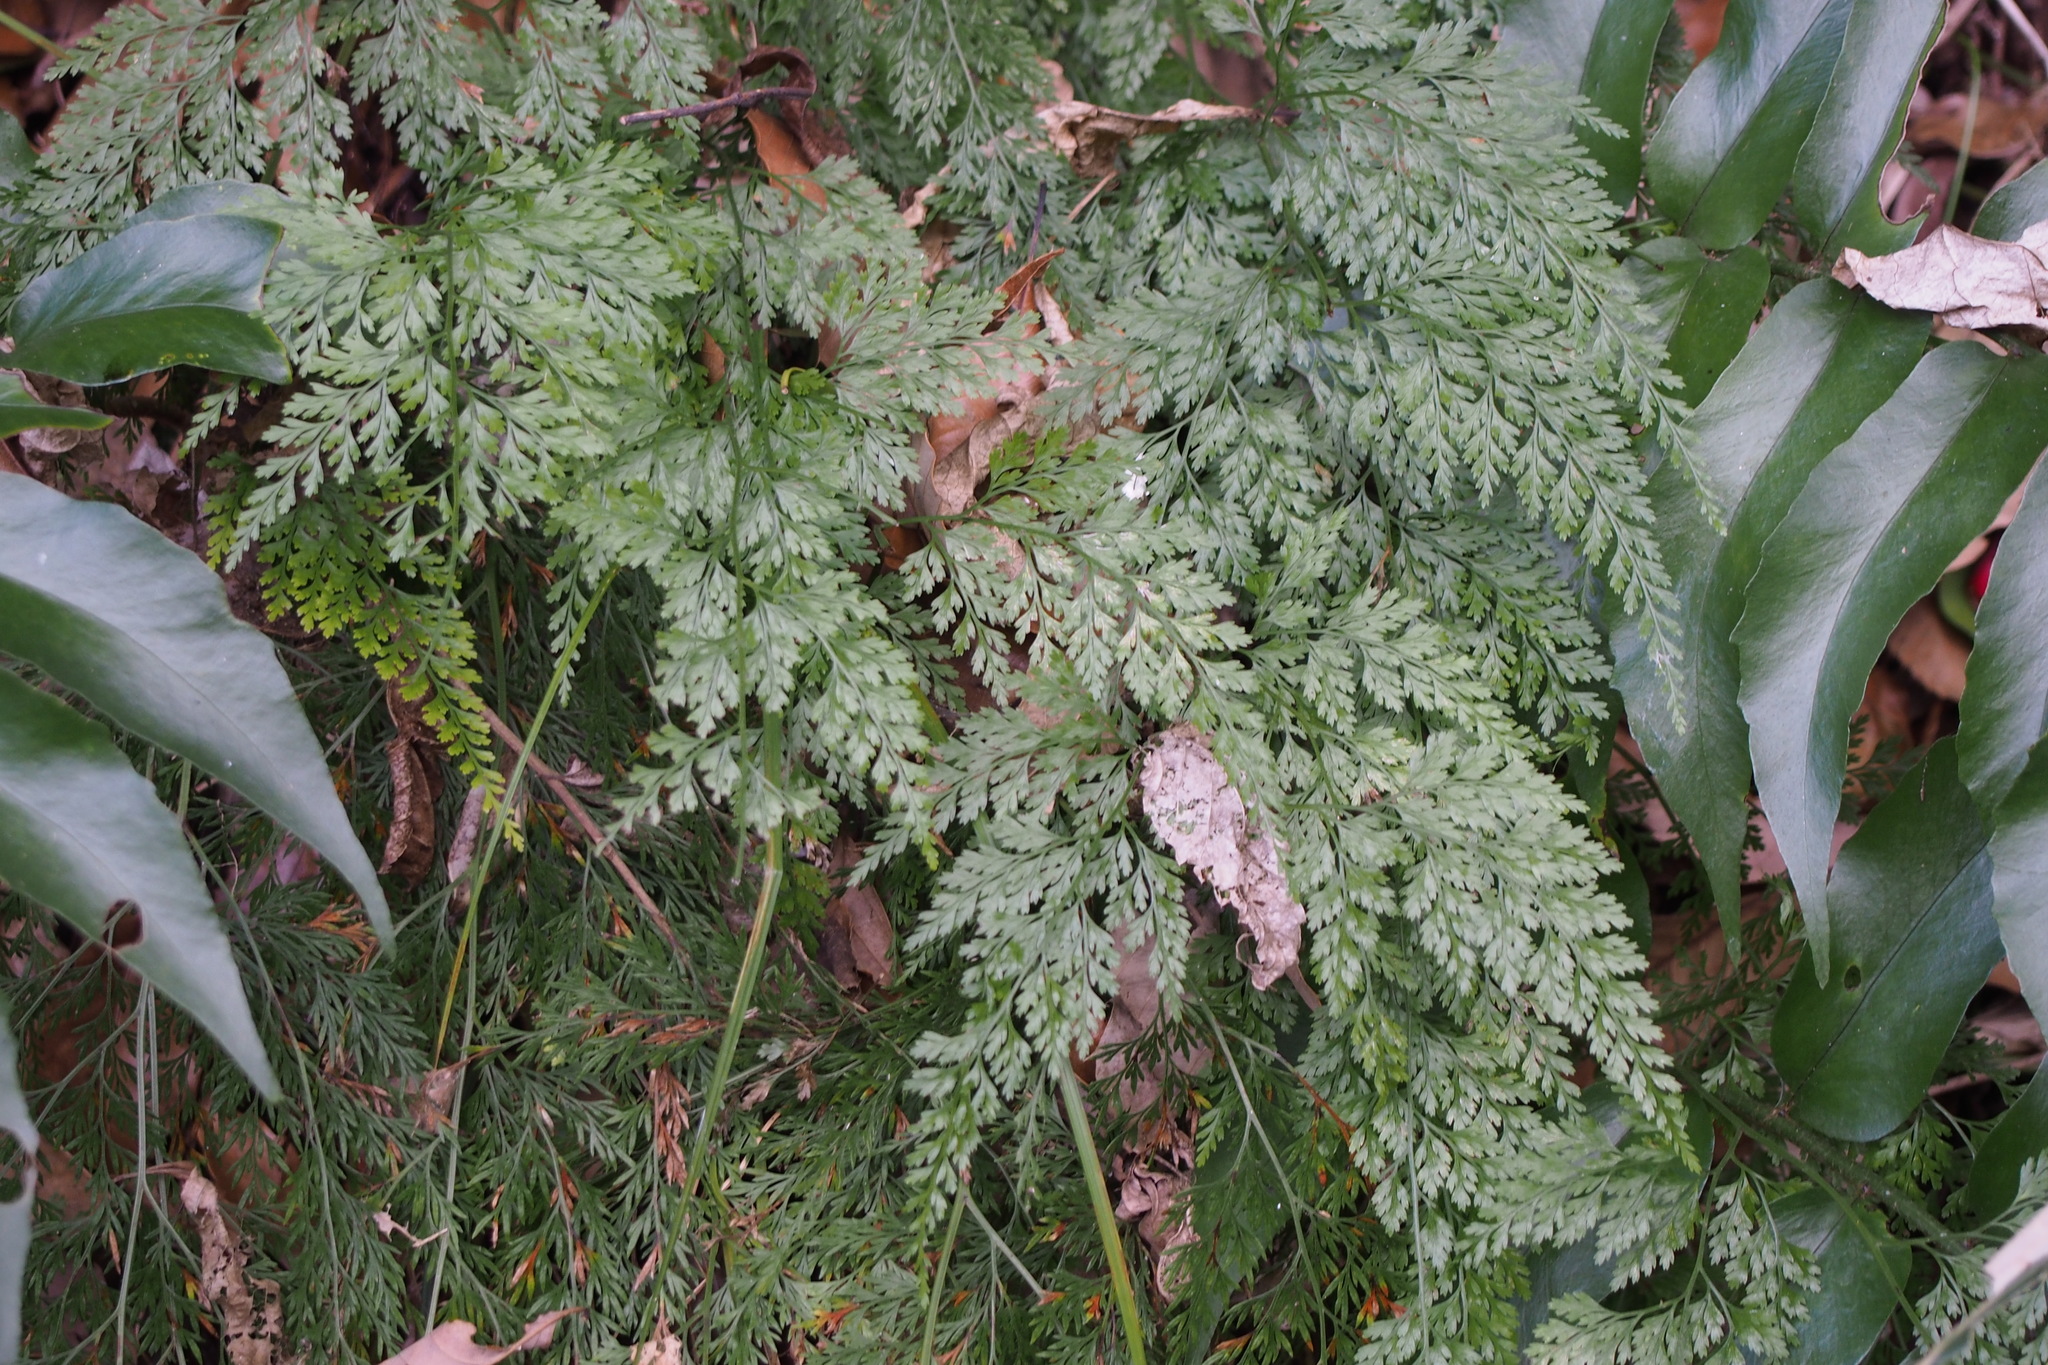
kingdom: Plantae
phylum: Tracheophyta
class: Polypodiopsida
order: Polypodiales
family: Pteridaceae
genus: Onychium
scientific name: Onychium japonicum
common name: Carrot fern
